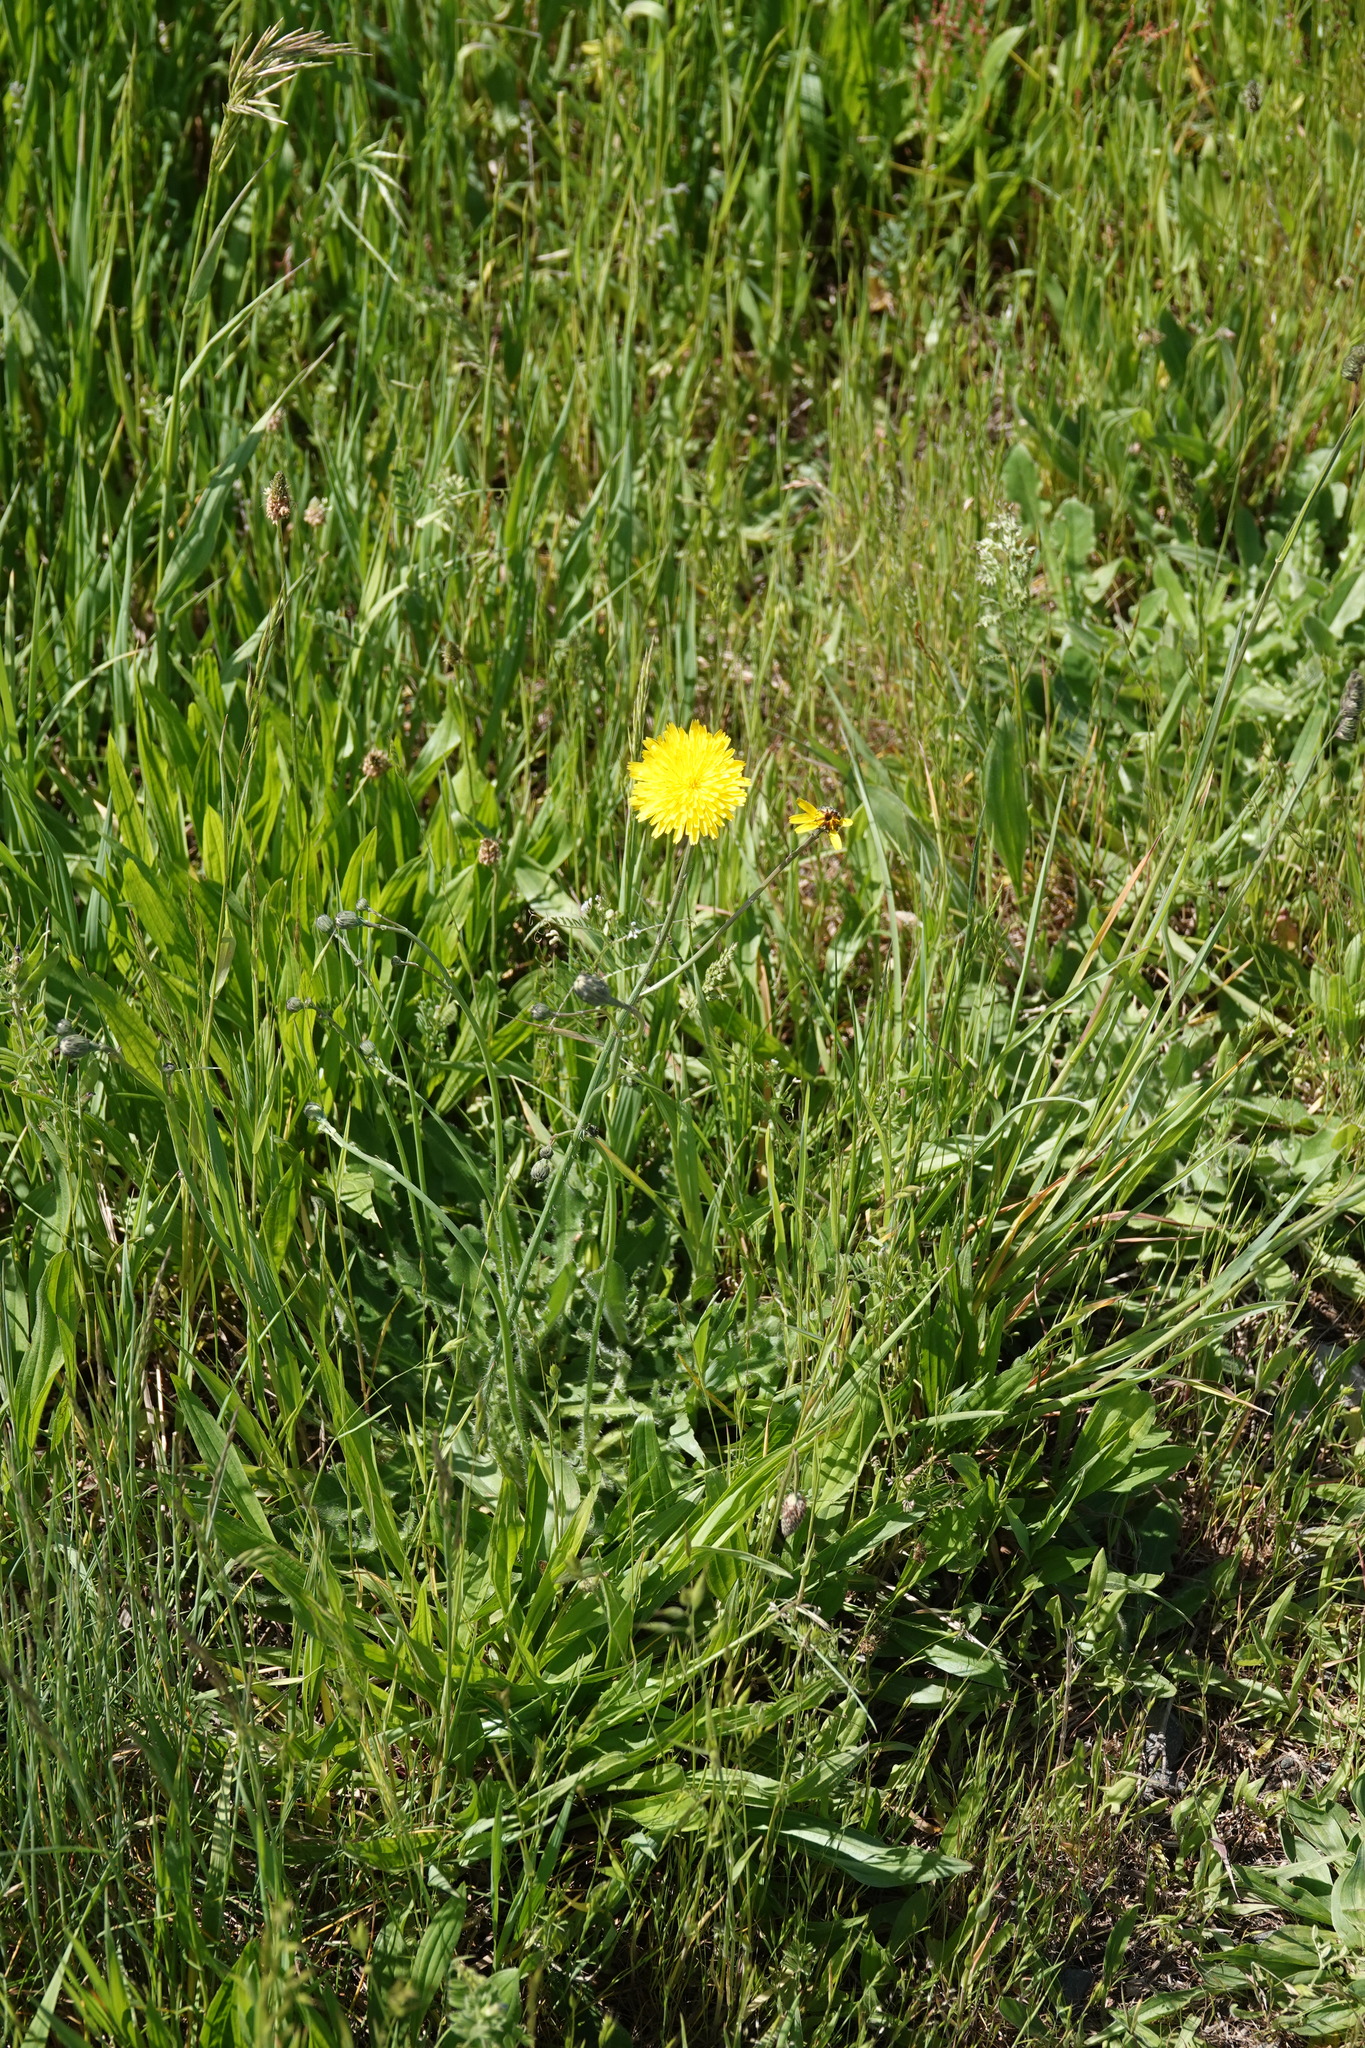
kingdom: Plantae
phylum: Tracheophyta
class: Magnoliopsida
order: Asterales
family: Asteraceae
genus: Hypochaeris
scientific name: Hypochaeris radicata
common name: Flatweed
